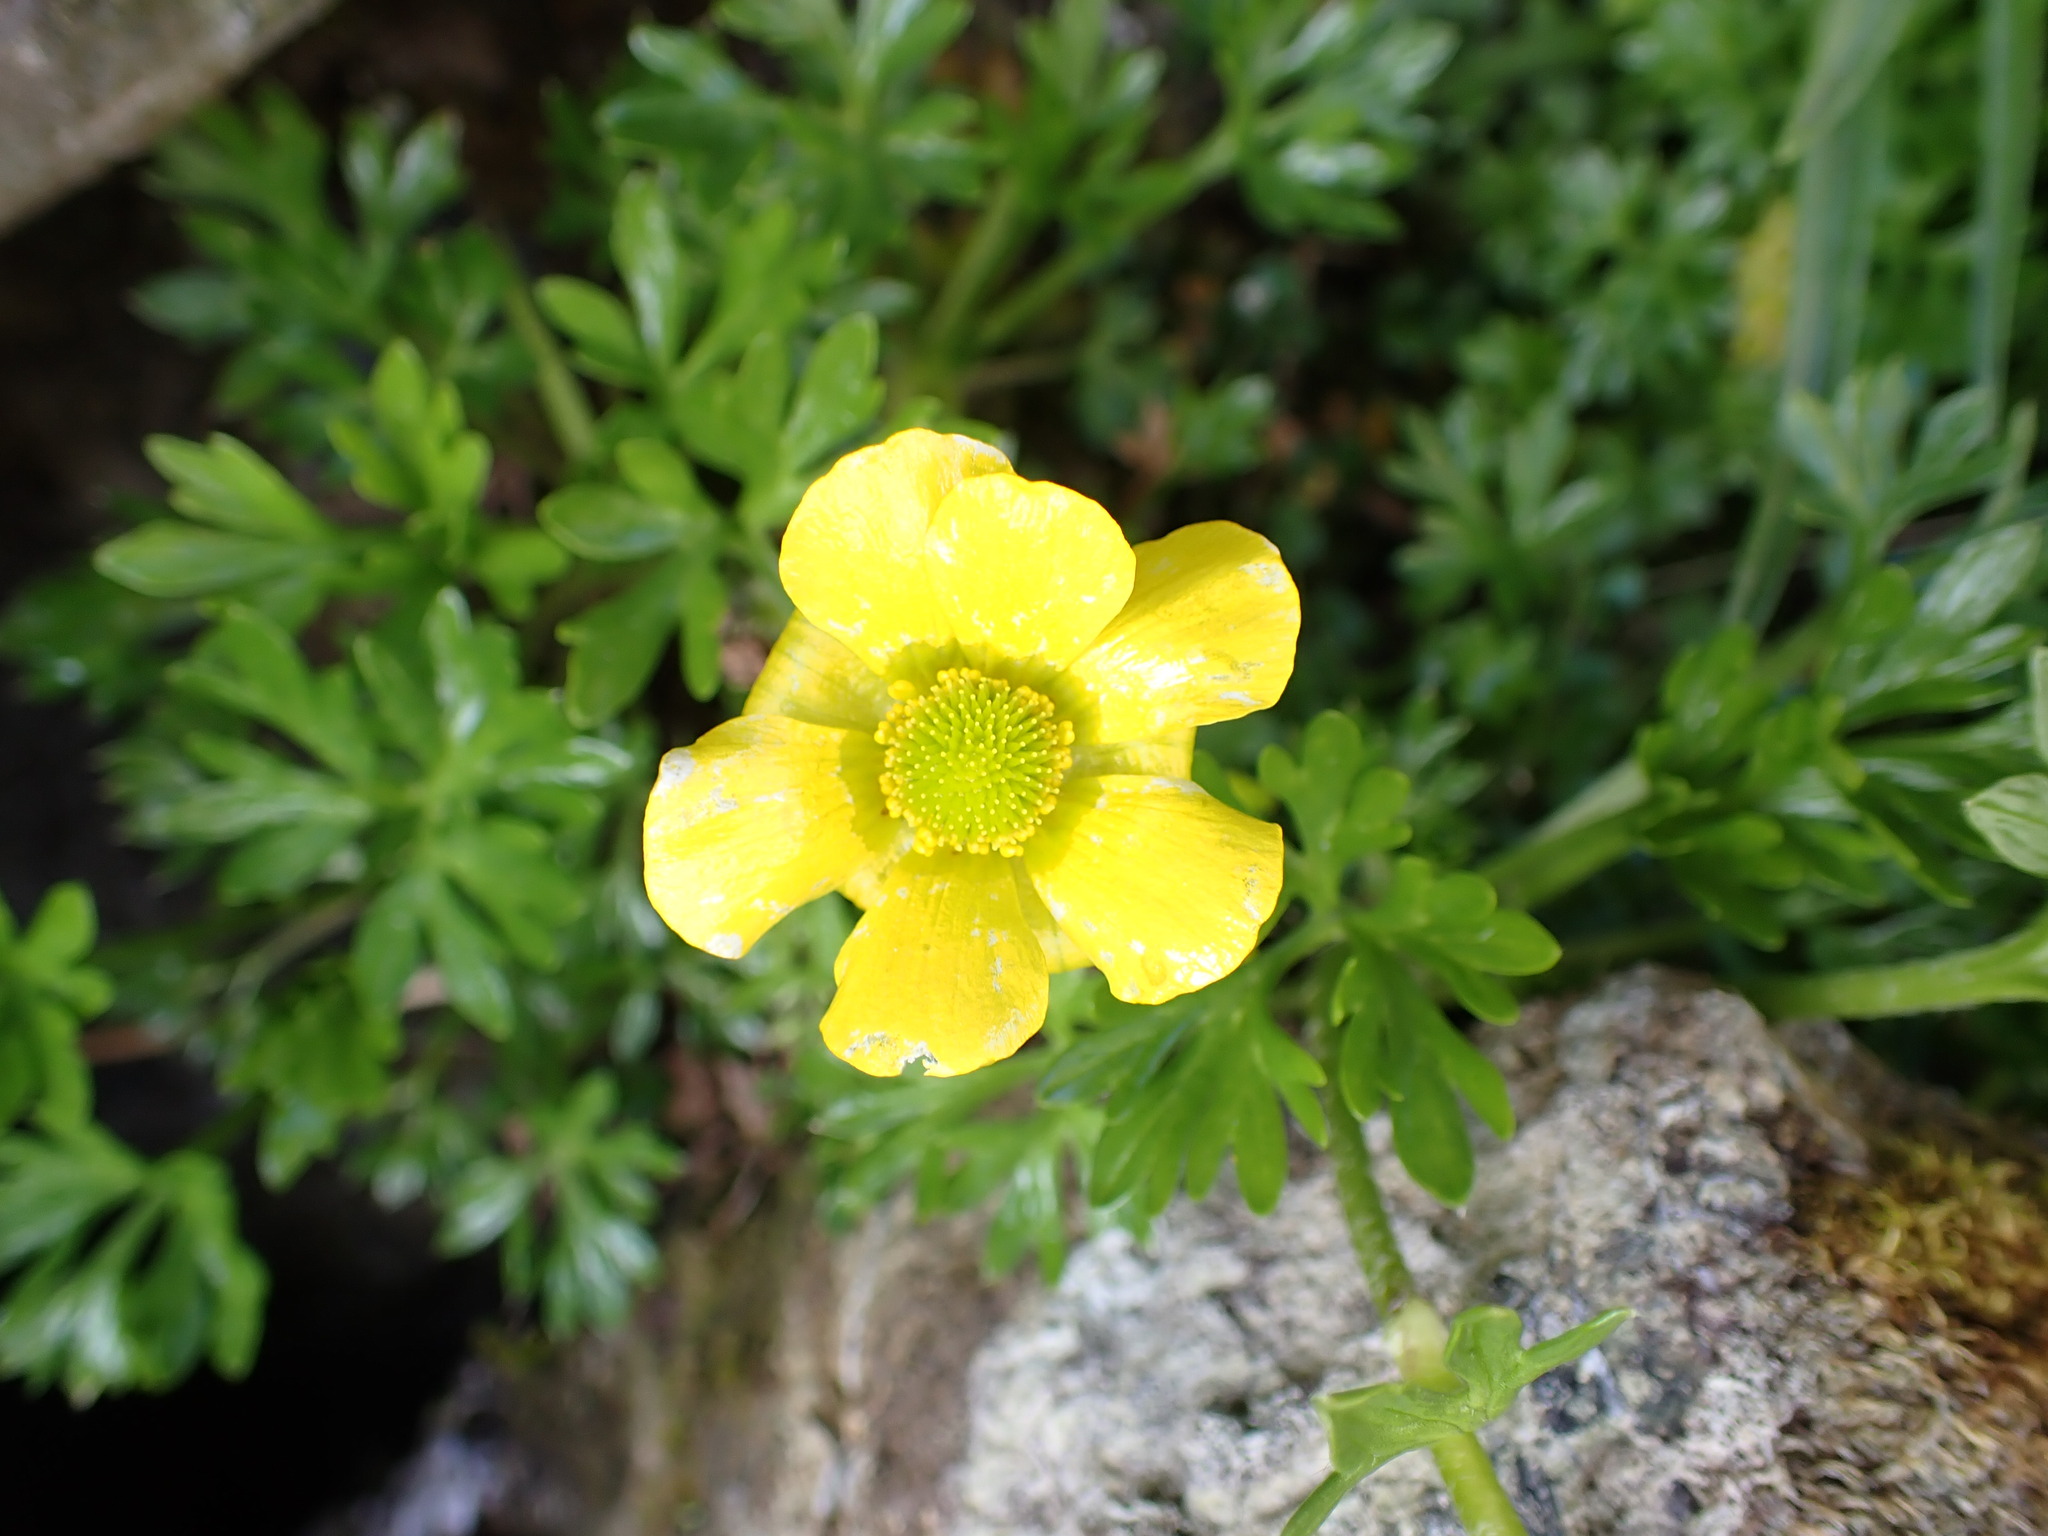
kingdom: Plantae
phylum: Tracheophyta
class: Magnoliopsida
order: Ranunculales
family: Ranunculaceae
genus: Ranunculus
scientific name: Ranunculus sericophyllus
